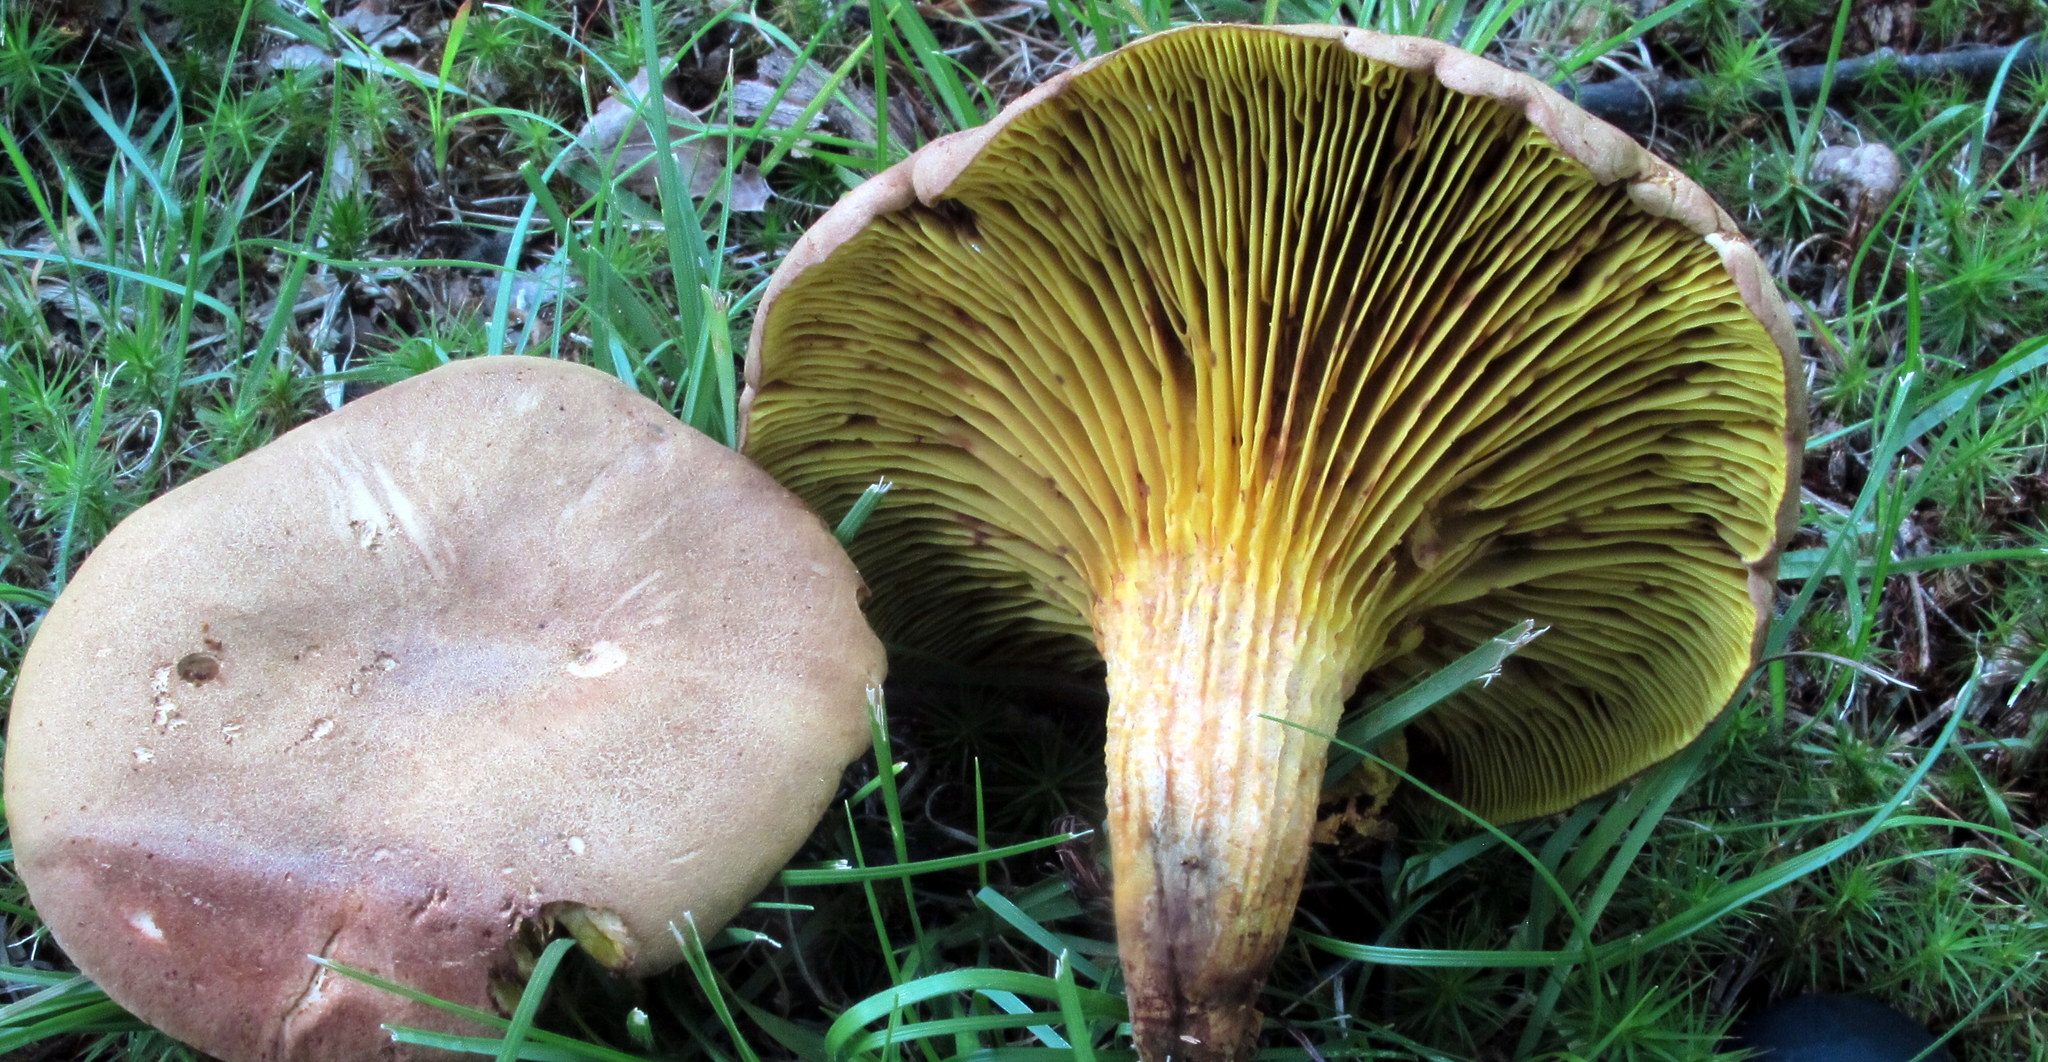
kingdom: Fungi
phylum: Basidiomycota
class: Agaricomycetes
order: Boletales
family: Boletaceae
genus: Phylloporus
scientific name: Phylloporus rhodoxanthus
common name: Golden gilled bolete
